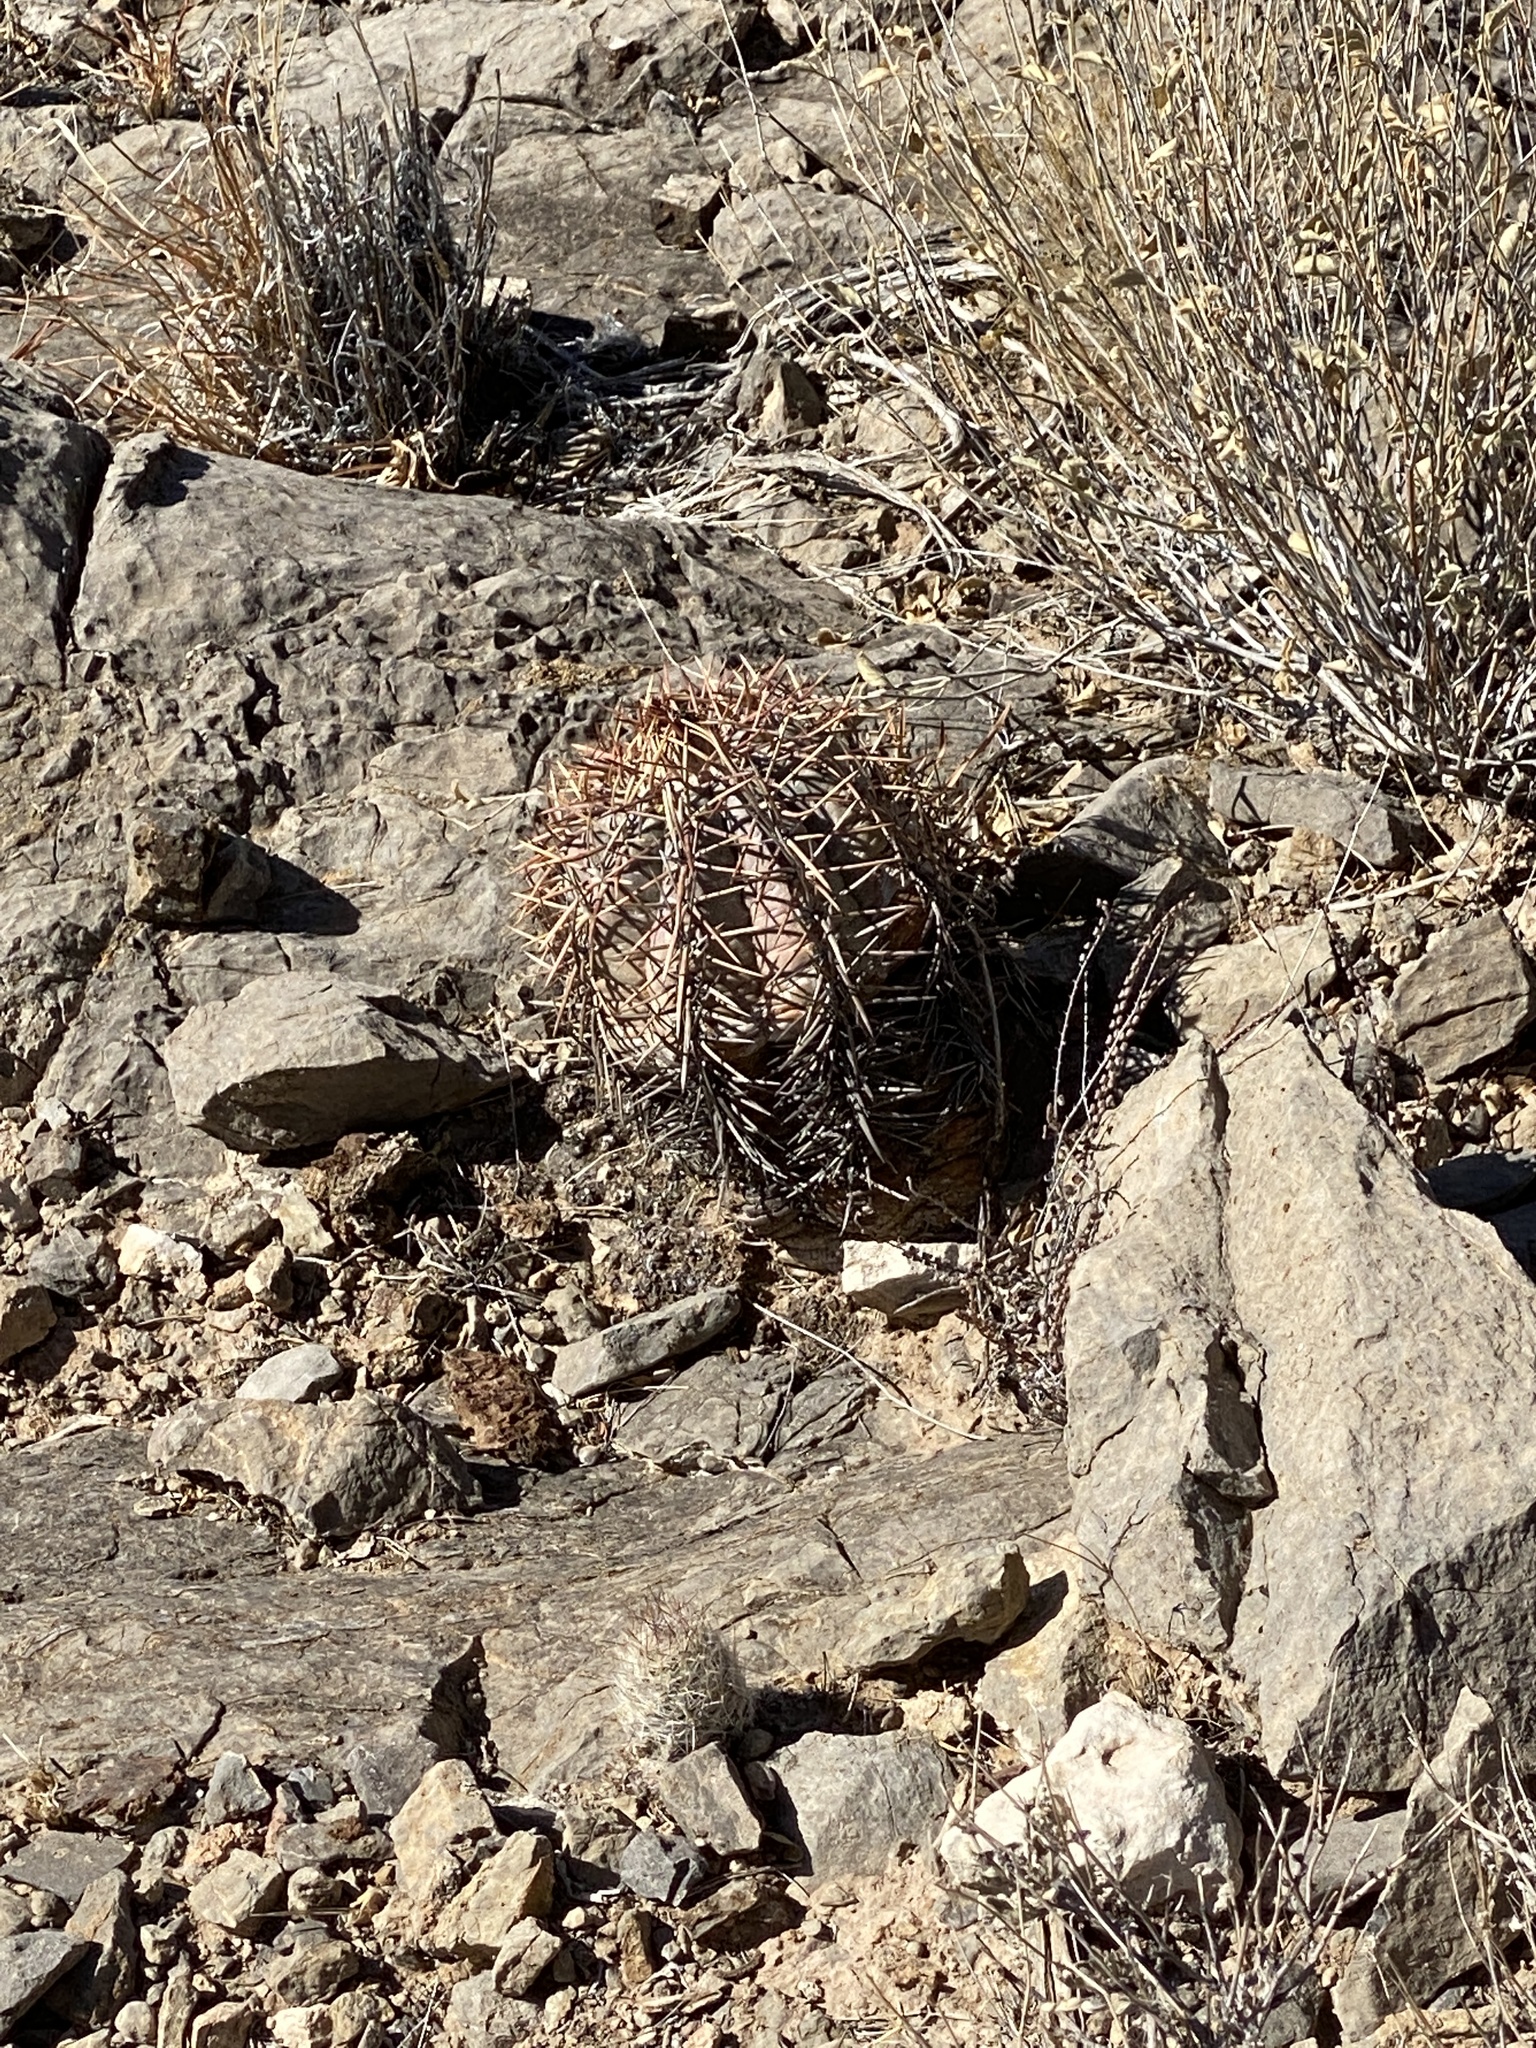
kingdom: Plantae
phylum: Tracheophyta
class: Magnoliopsida
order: Caryophyllales
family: Cactaceae
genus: Echinocactus
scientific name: Echinocactus horizonthalonius
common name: Devilshead
